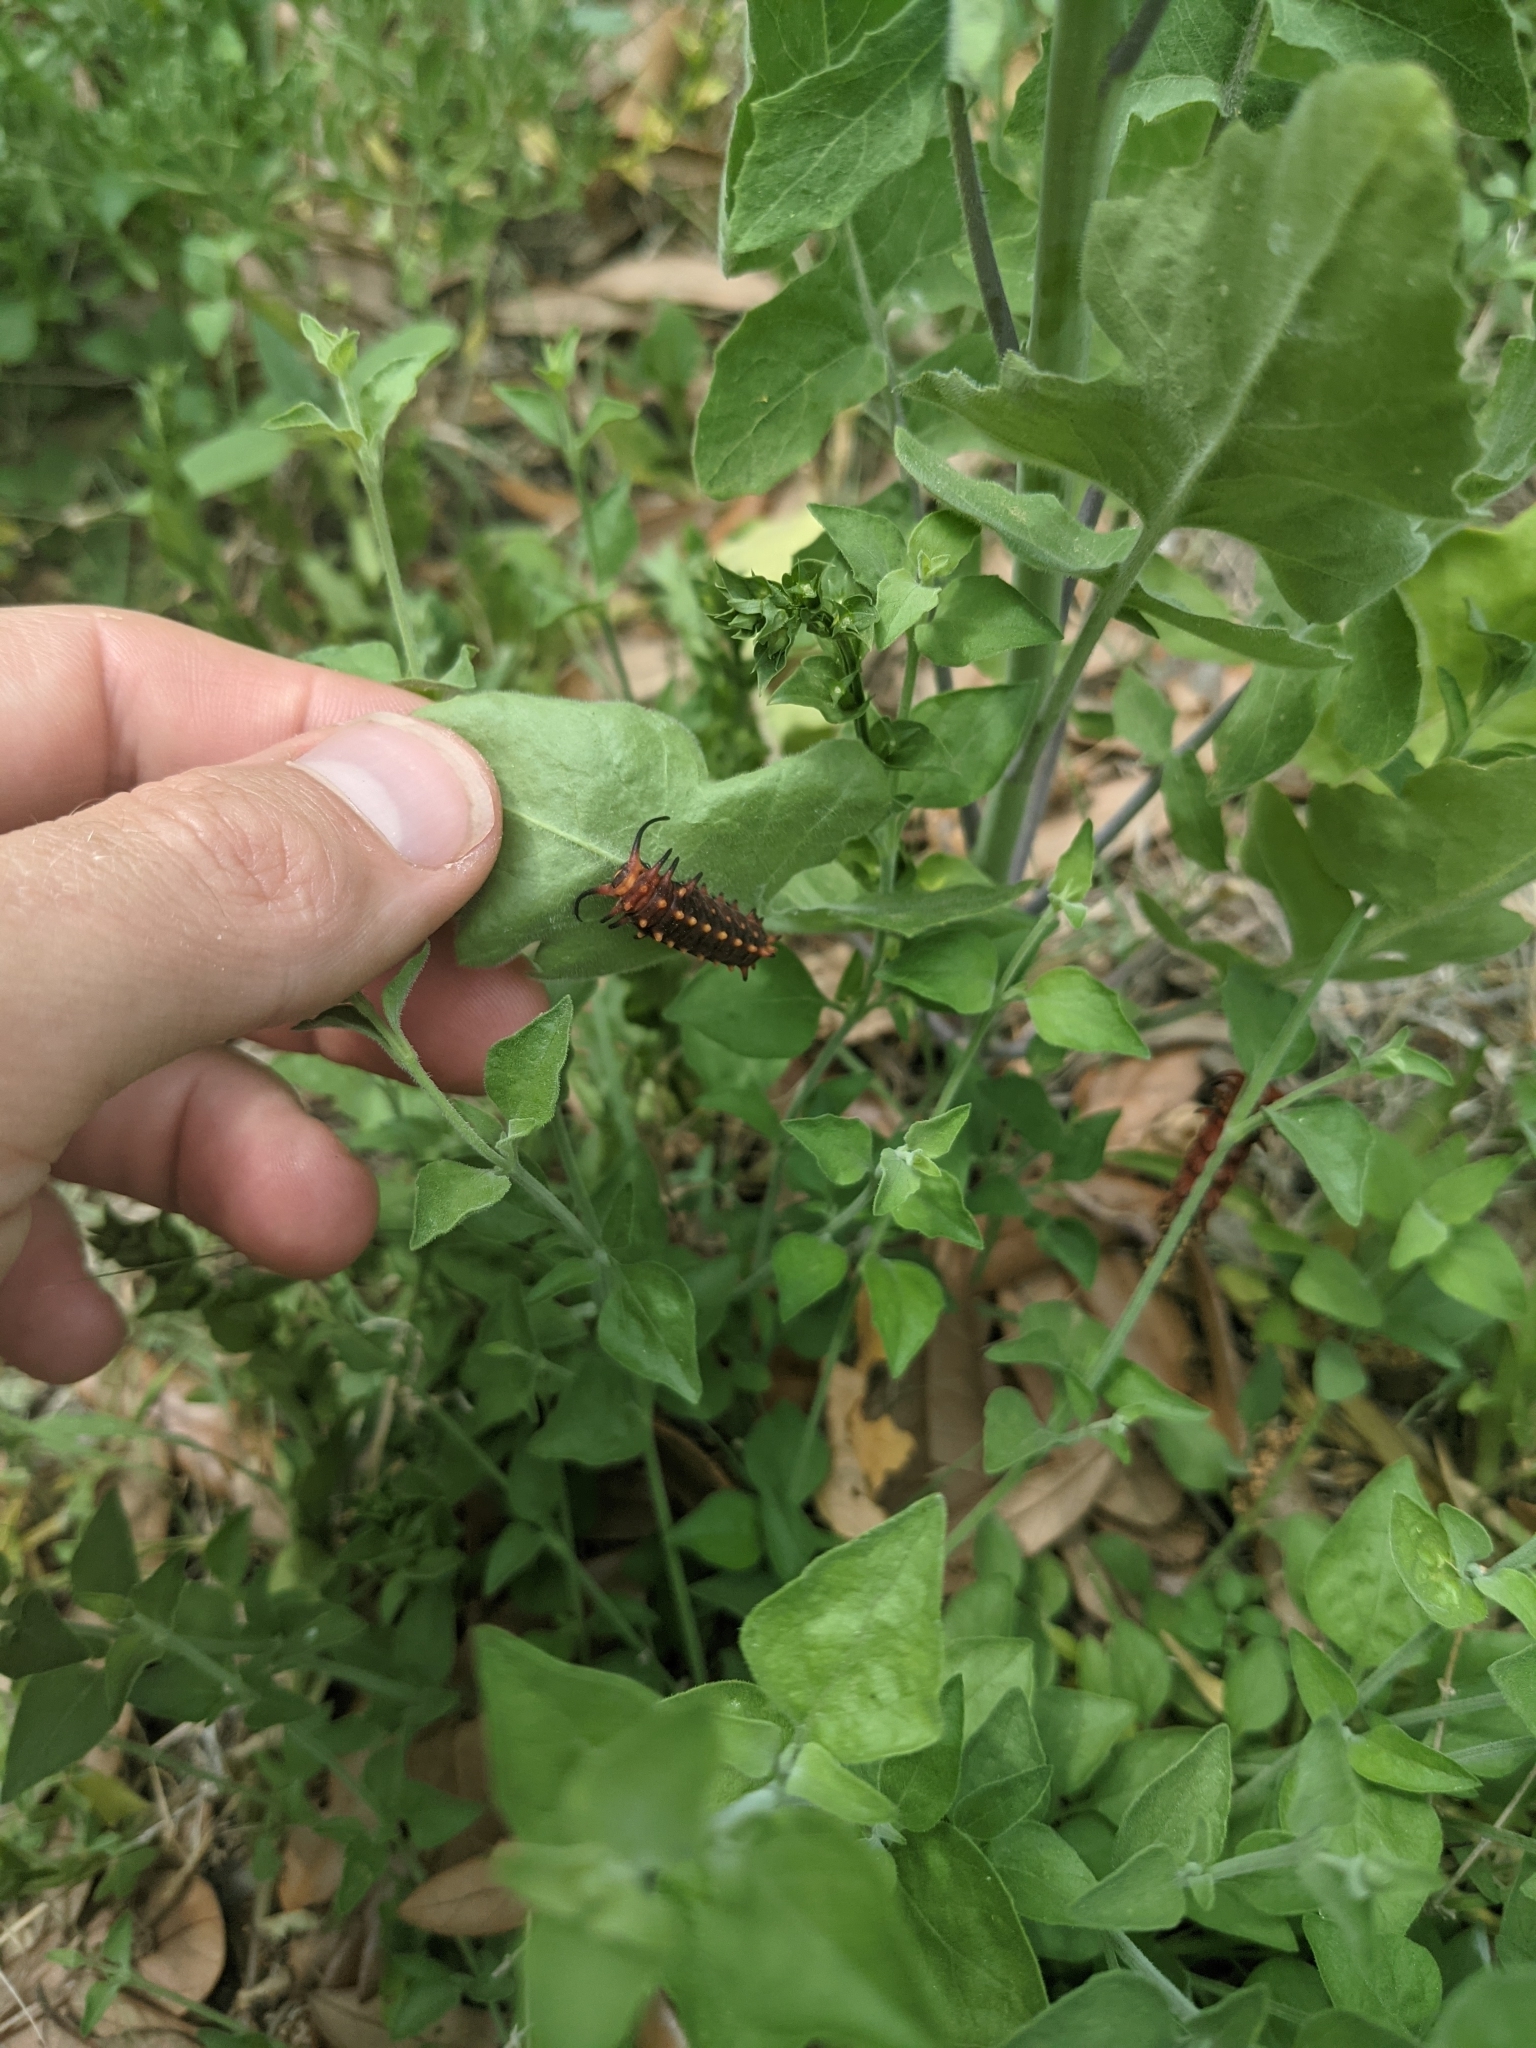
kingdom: Animalia
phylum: Arthropoda
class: Insecta
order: Lepidoptera
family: Papilionidae
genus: Battus
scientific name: Battus philenor
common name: Pipevine swallowtail
